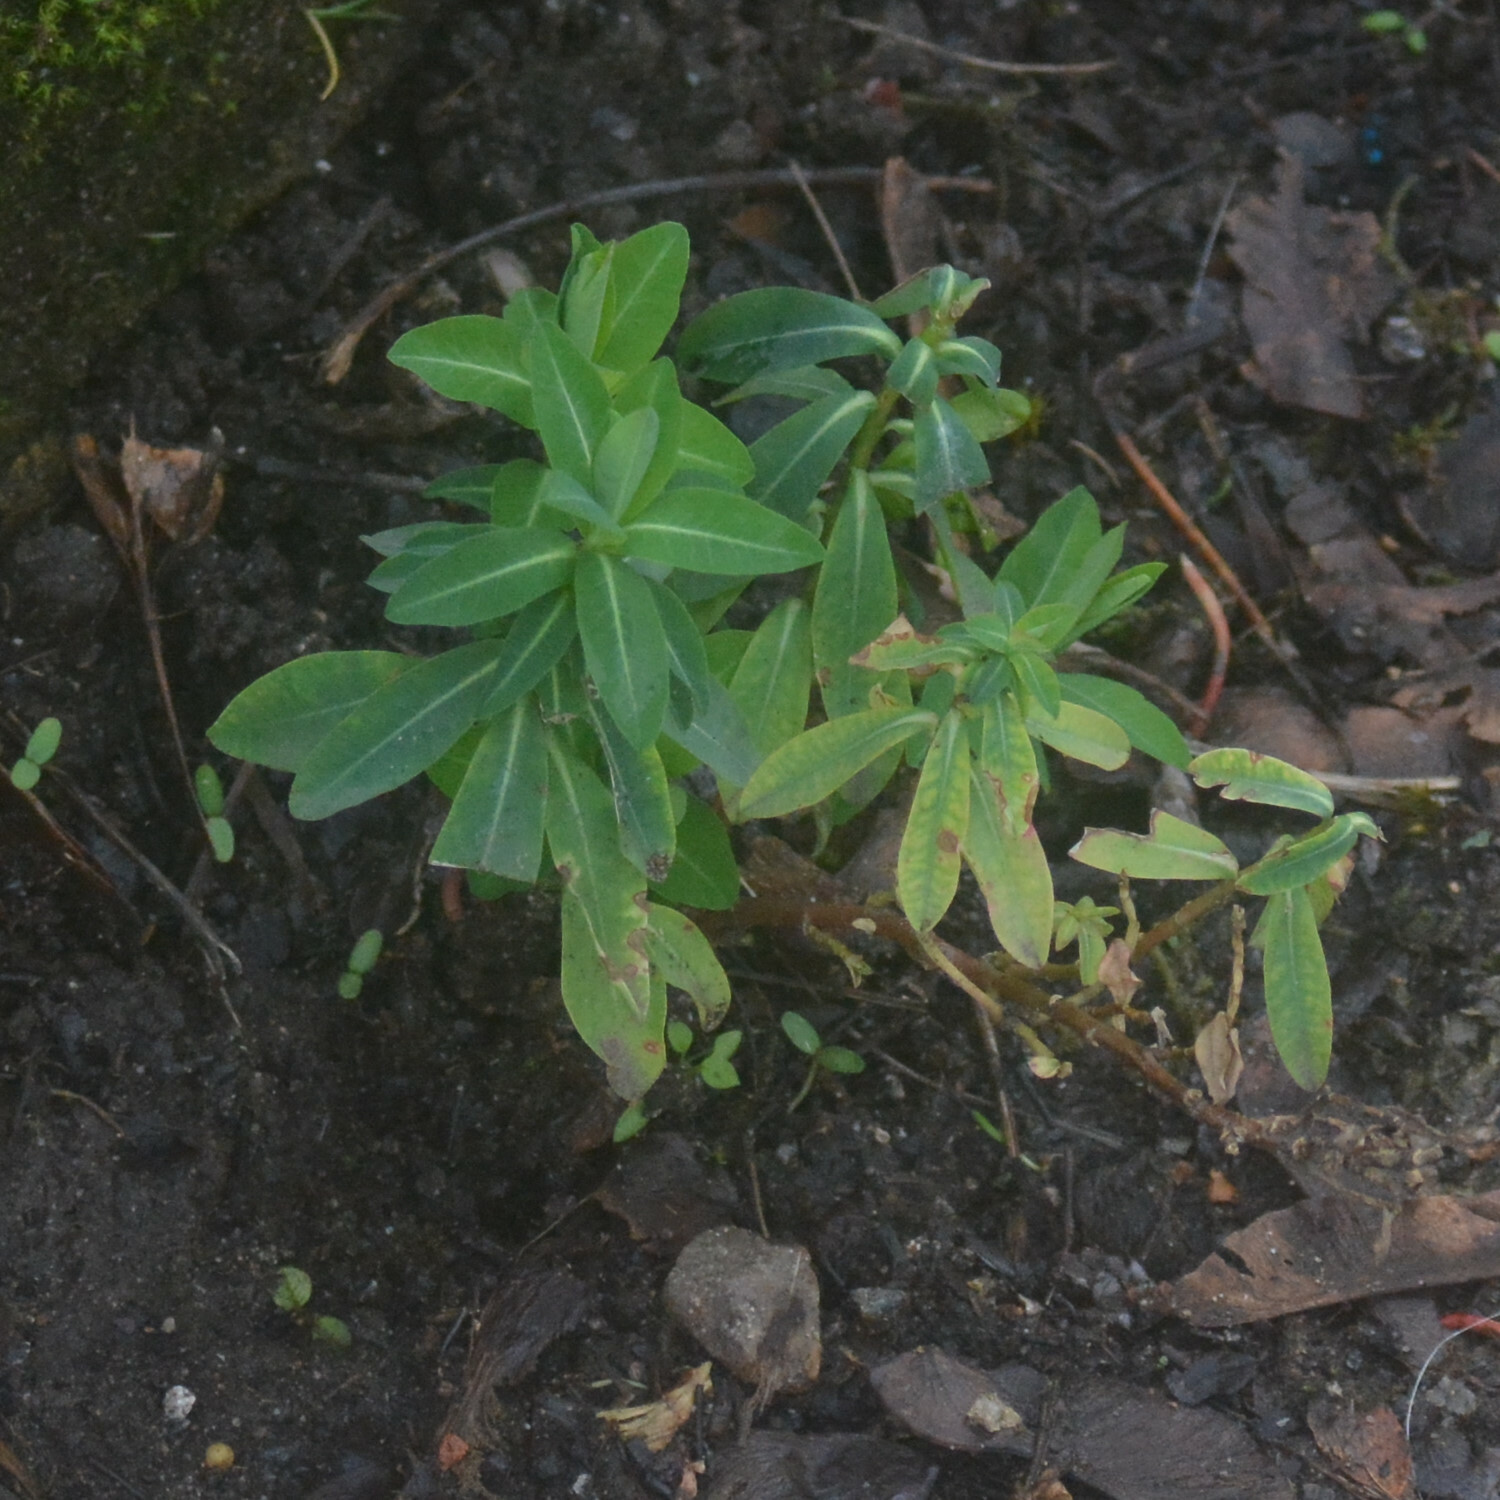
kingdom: Plantae
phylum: Tracheophyta
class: Magnoliopsida
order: Malpighiales
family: Euphorbiaceae
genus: Euphorbia
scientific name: Euphorbia oblongata
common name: Balkan spurge
